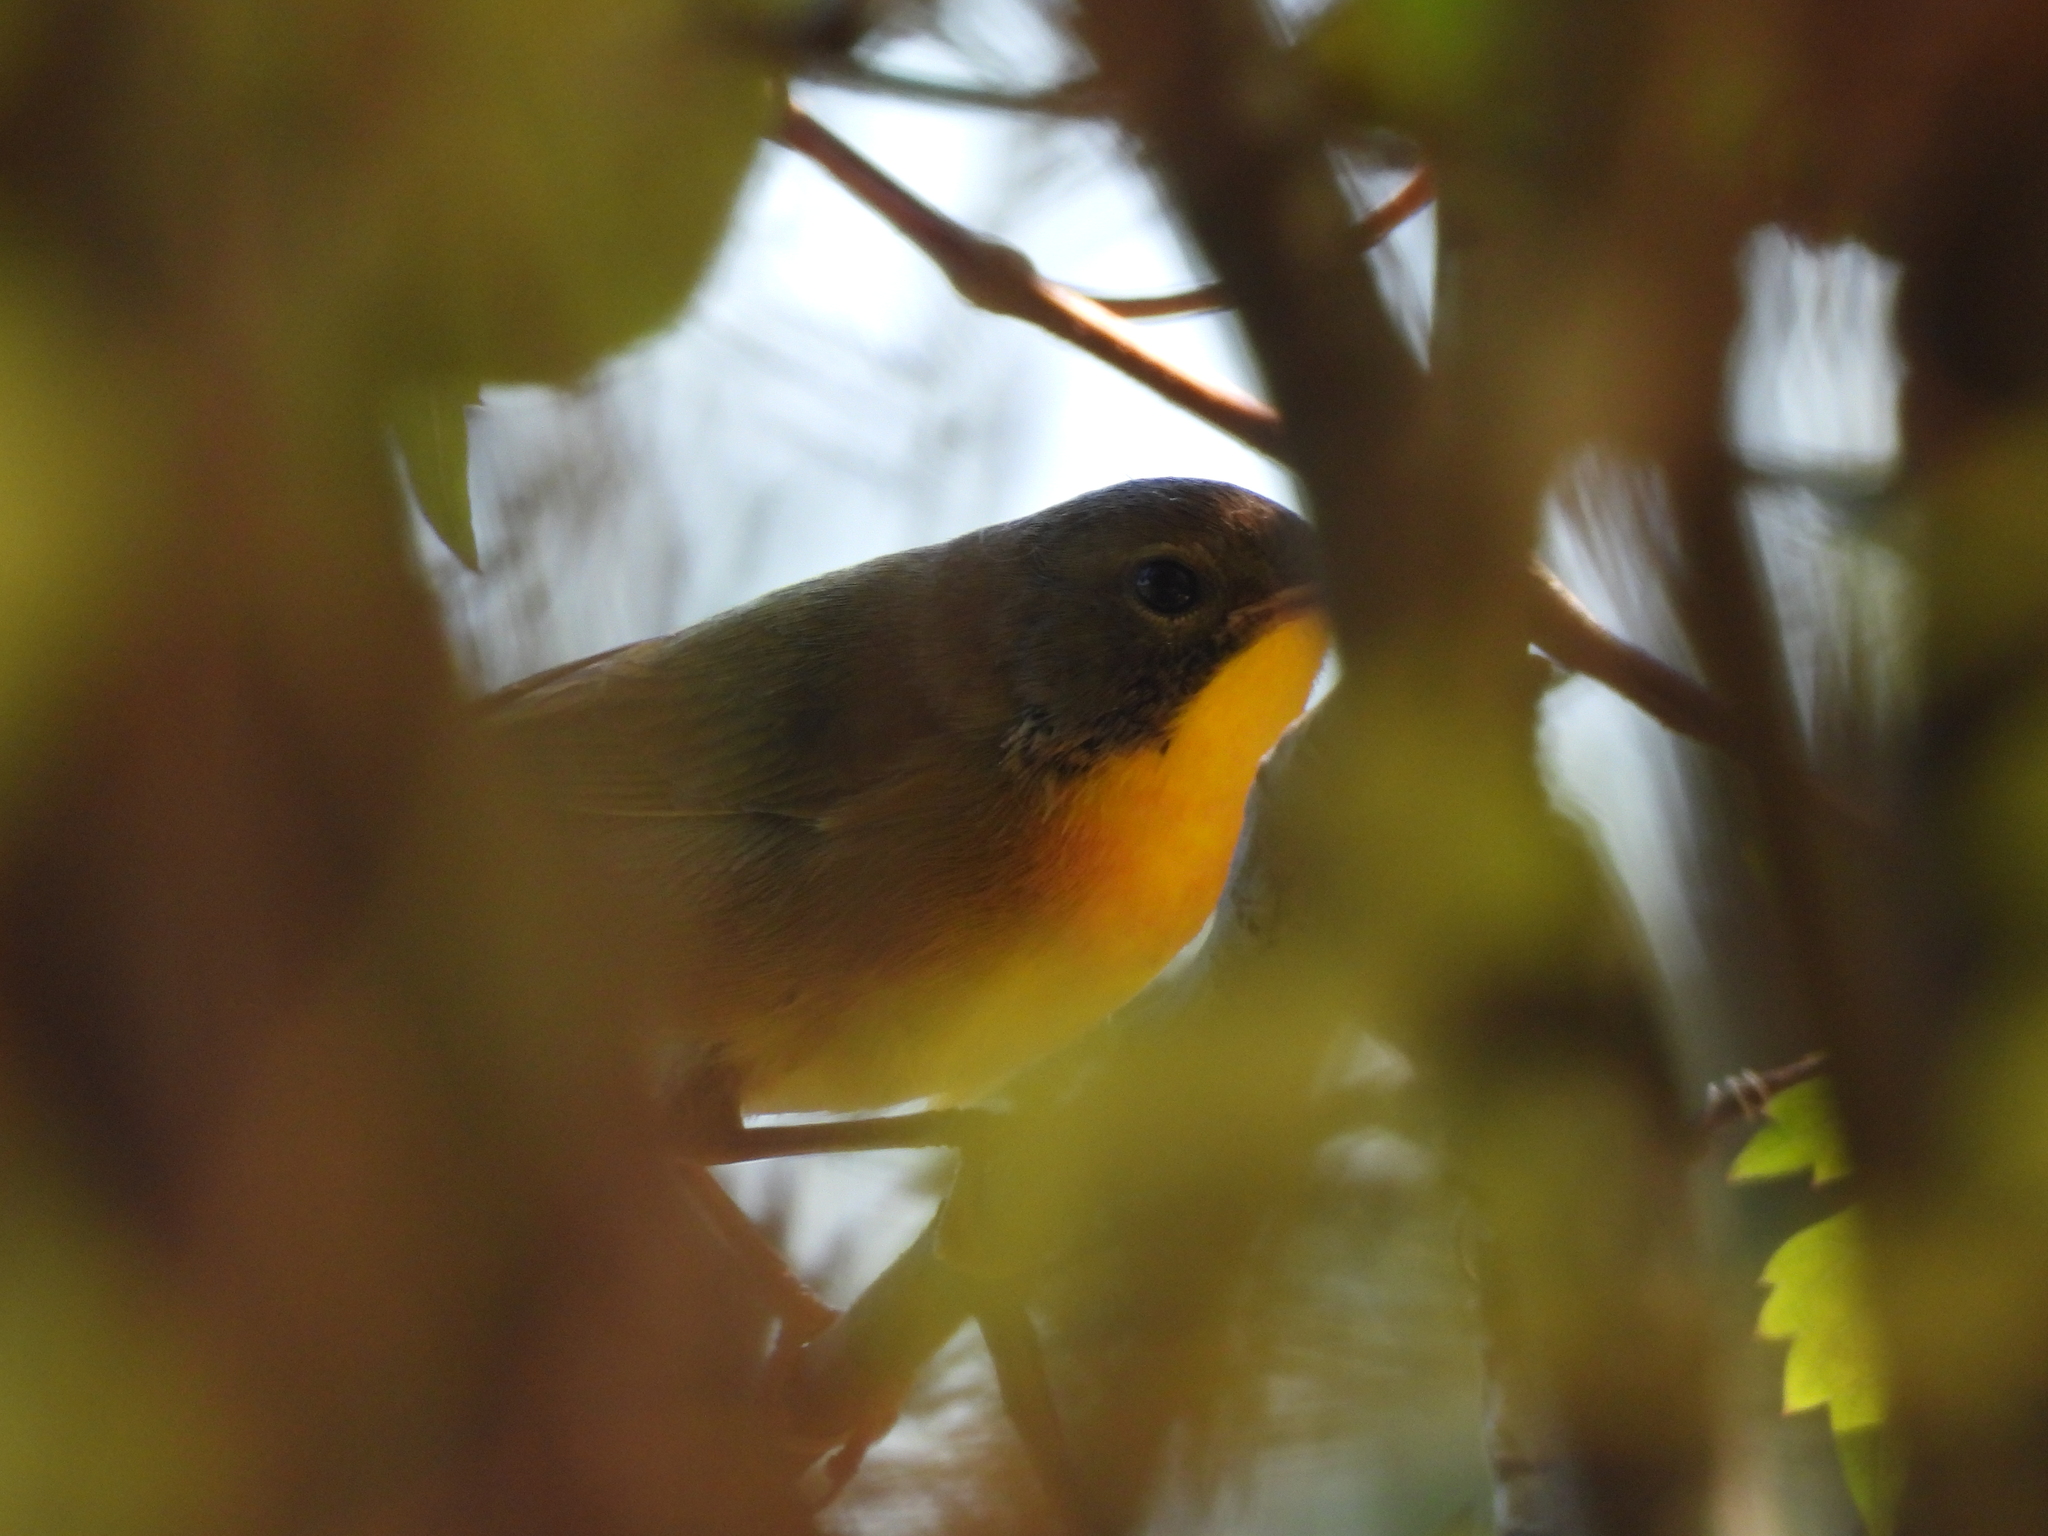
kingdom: Animalia
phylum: Chordata
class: Aves
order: Passeriformes
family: Parulidae
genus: Geothlypis
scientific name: Geothlypis trichas
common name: Common yellowthroat
